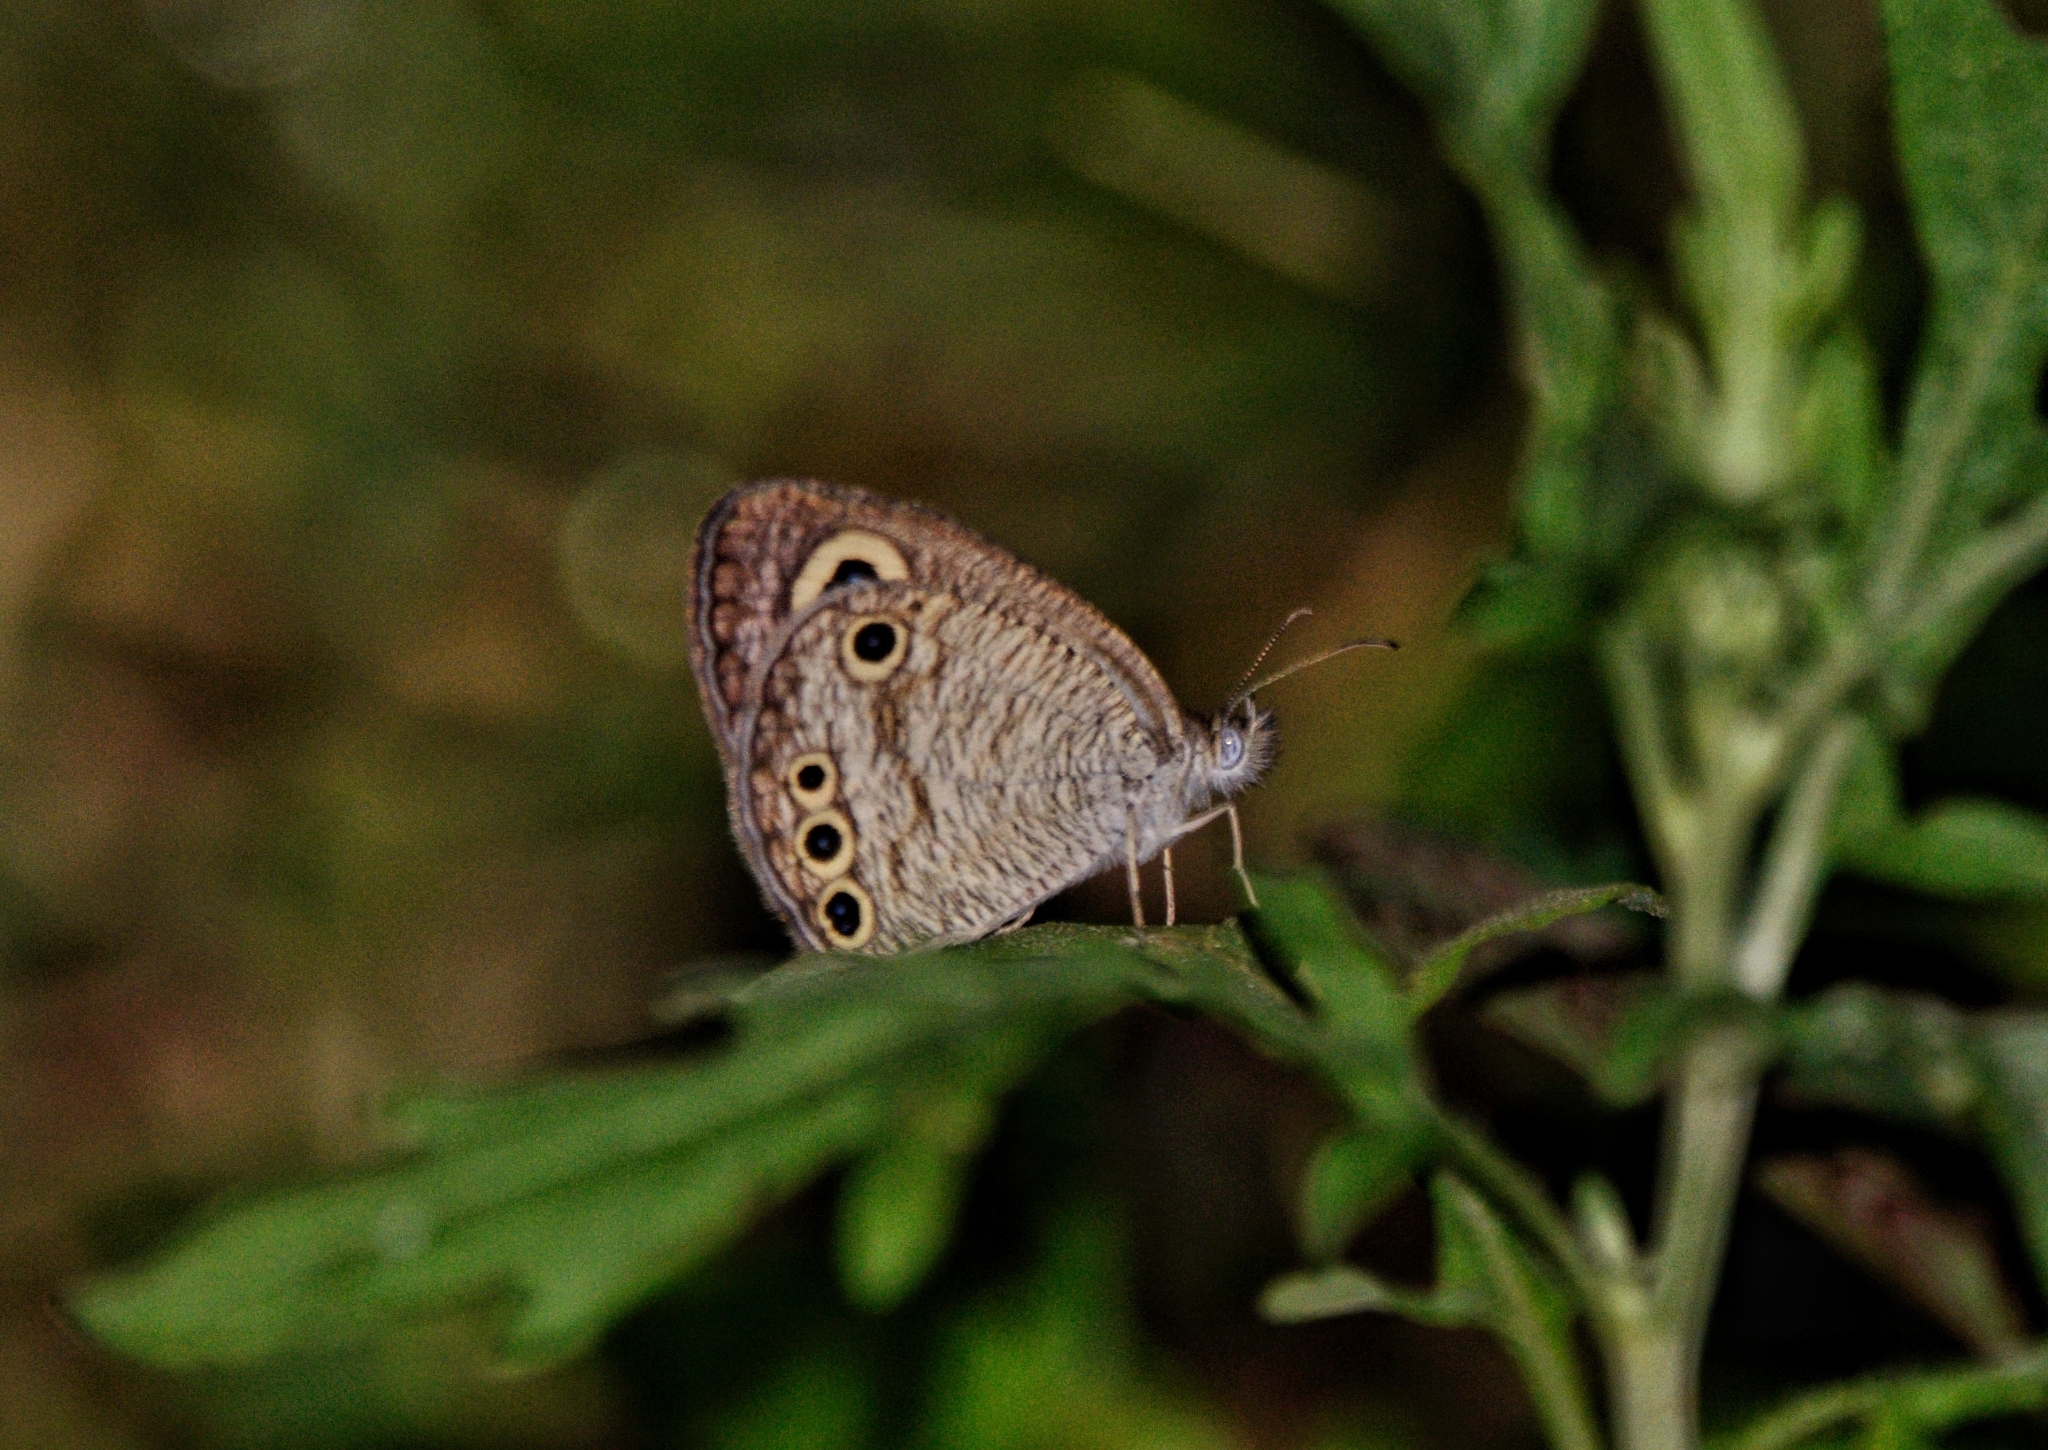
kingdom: Animalia
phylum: Arthropoda
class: Insecta
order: Lepidoptera
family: Nymphalidae
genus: Ypthima
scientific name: Ypthima huebneri
